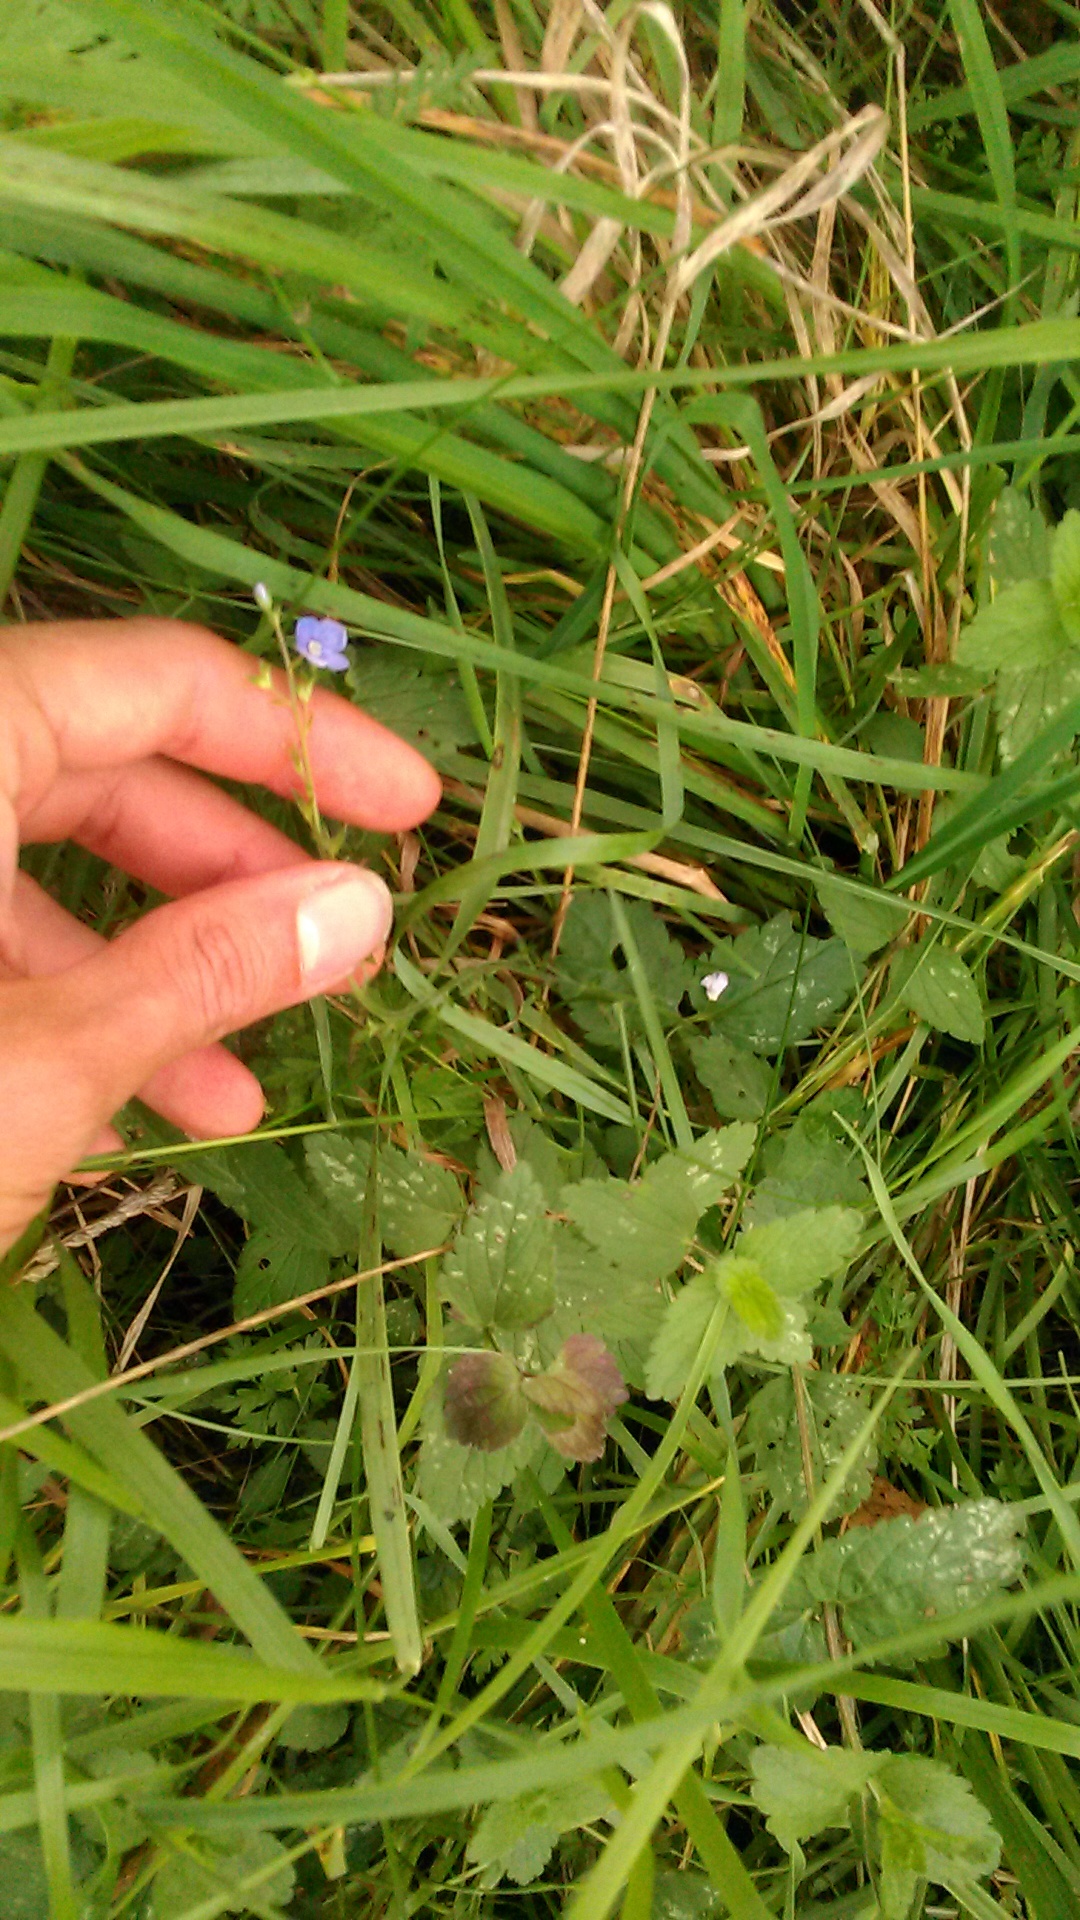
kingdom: Plantae
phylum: Tracheophyta
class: Magnoliopsida
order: Lamiales
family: Plantaginaceae
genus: Veronica
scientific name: Veronica chamaedrys
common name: Germander speedwell
